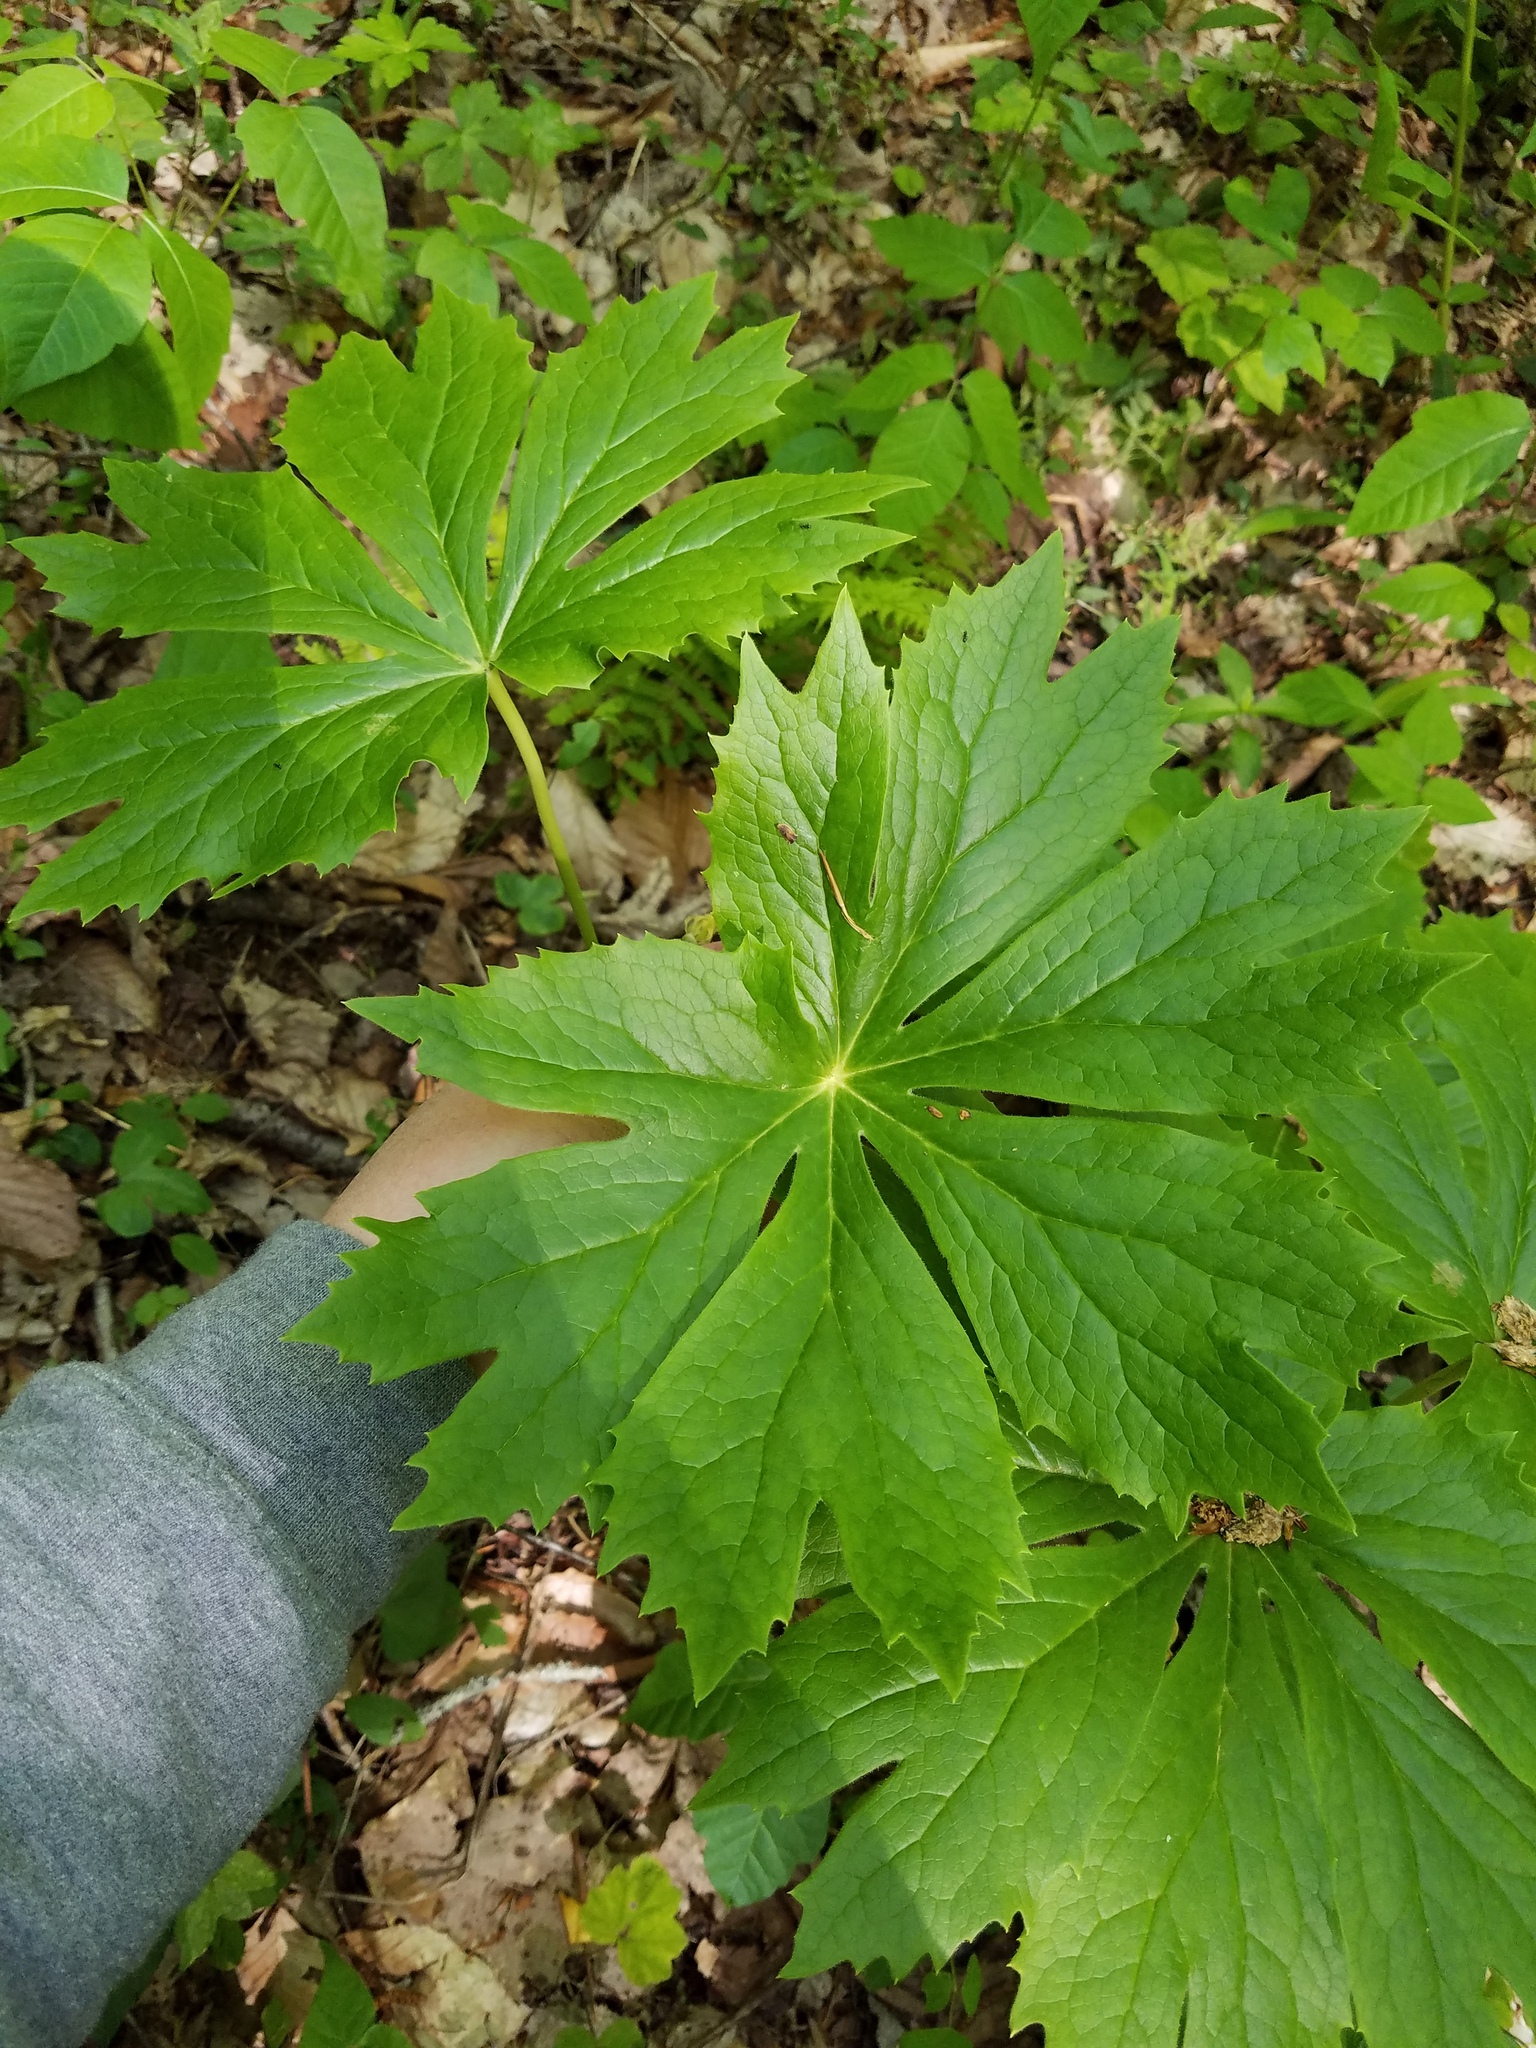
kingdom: Plantae
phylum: Tracheophyta
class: Magnoliopsida
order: Ranunculales
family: Berberidaceae
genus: Podophyllum
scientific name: Podophyllum peltatum
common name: Wild mandrake
